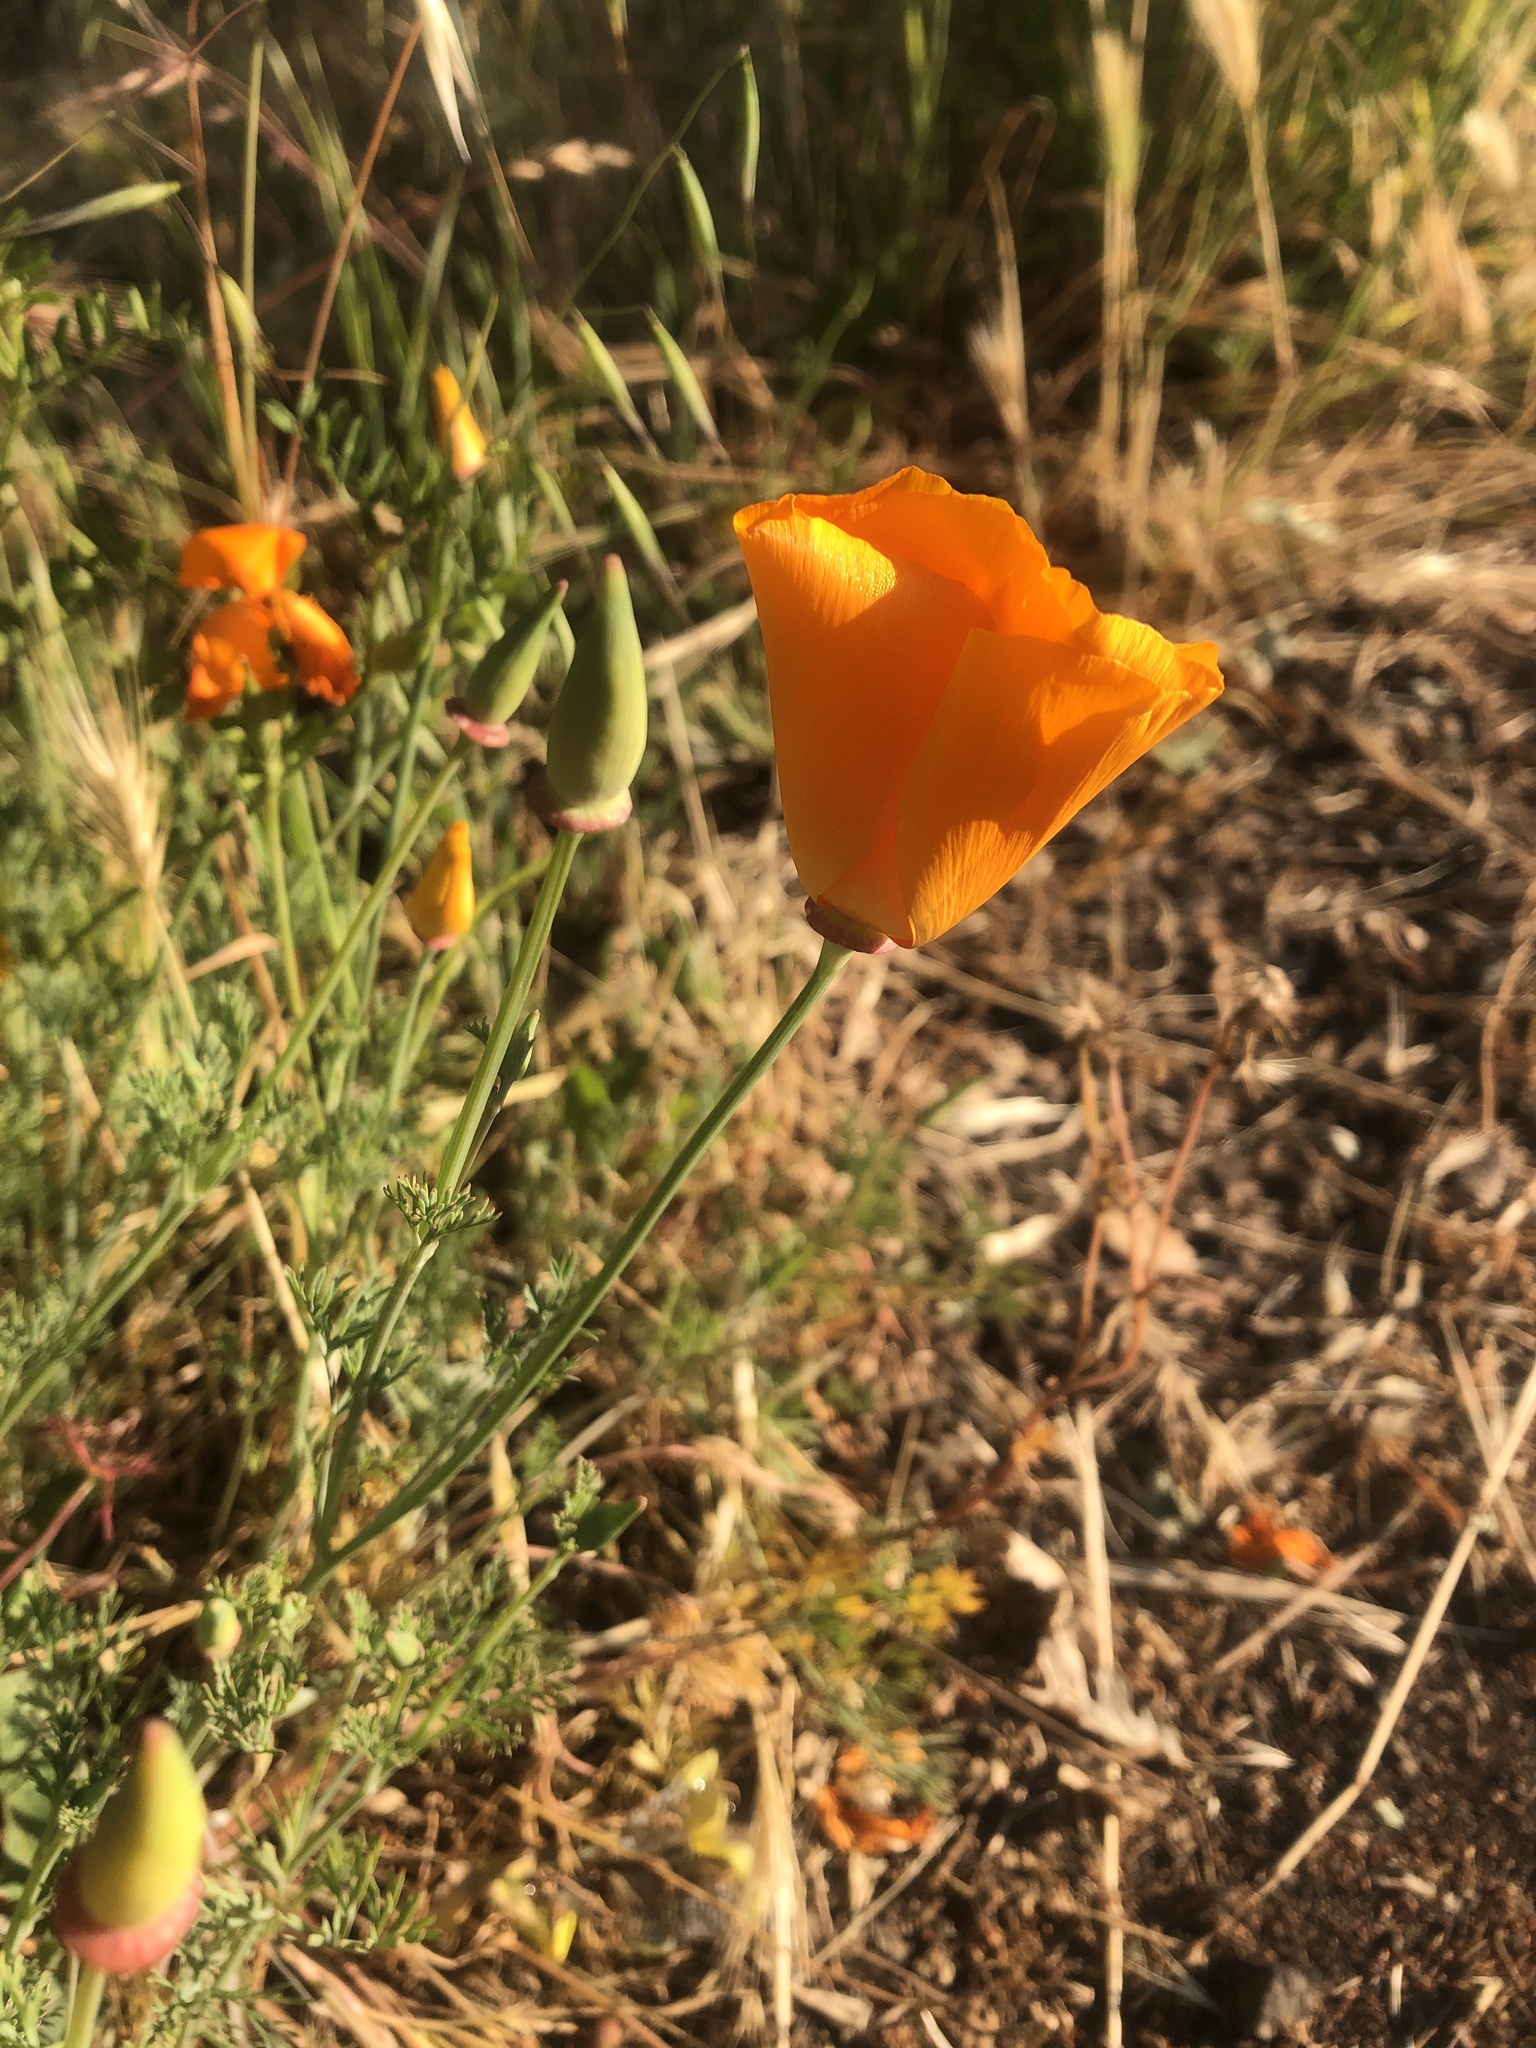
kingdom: Plantae
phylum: Tracheophyta
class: Magnoliopsida
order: Ranunculales
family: Papaveraceae
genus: Eschscholzia
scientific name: Eschscholzia californica
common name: California poppy
